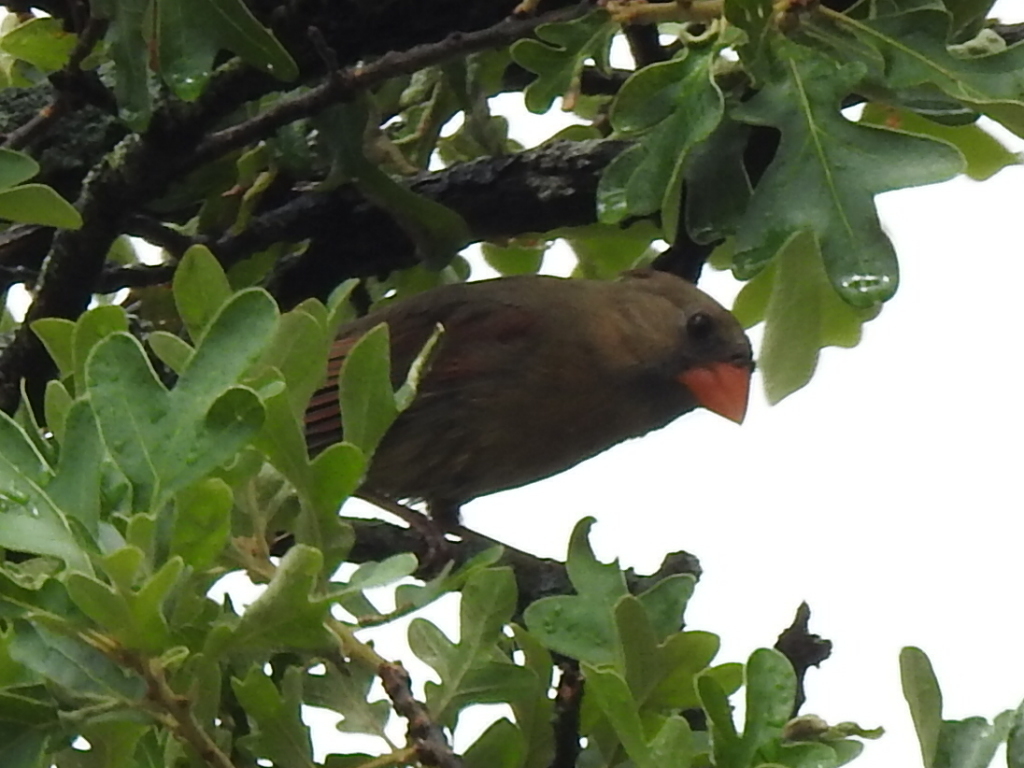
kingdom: Animalia
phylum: Chordata
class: Aves
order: Passeriformes
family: Cardinalidae
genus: Cardinalis
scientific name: Cardinalis cardinalis
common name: Northern cardinal
